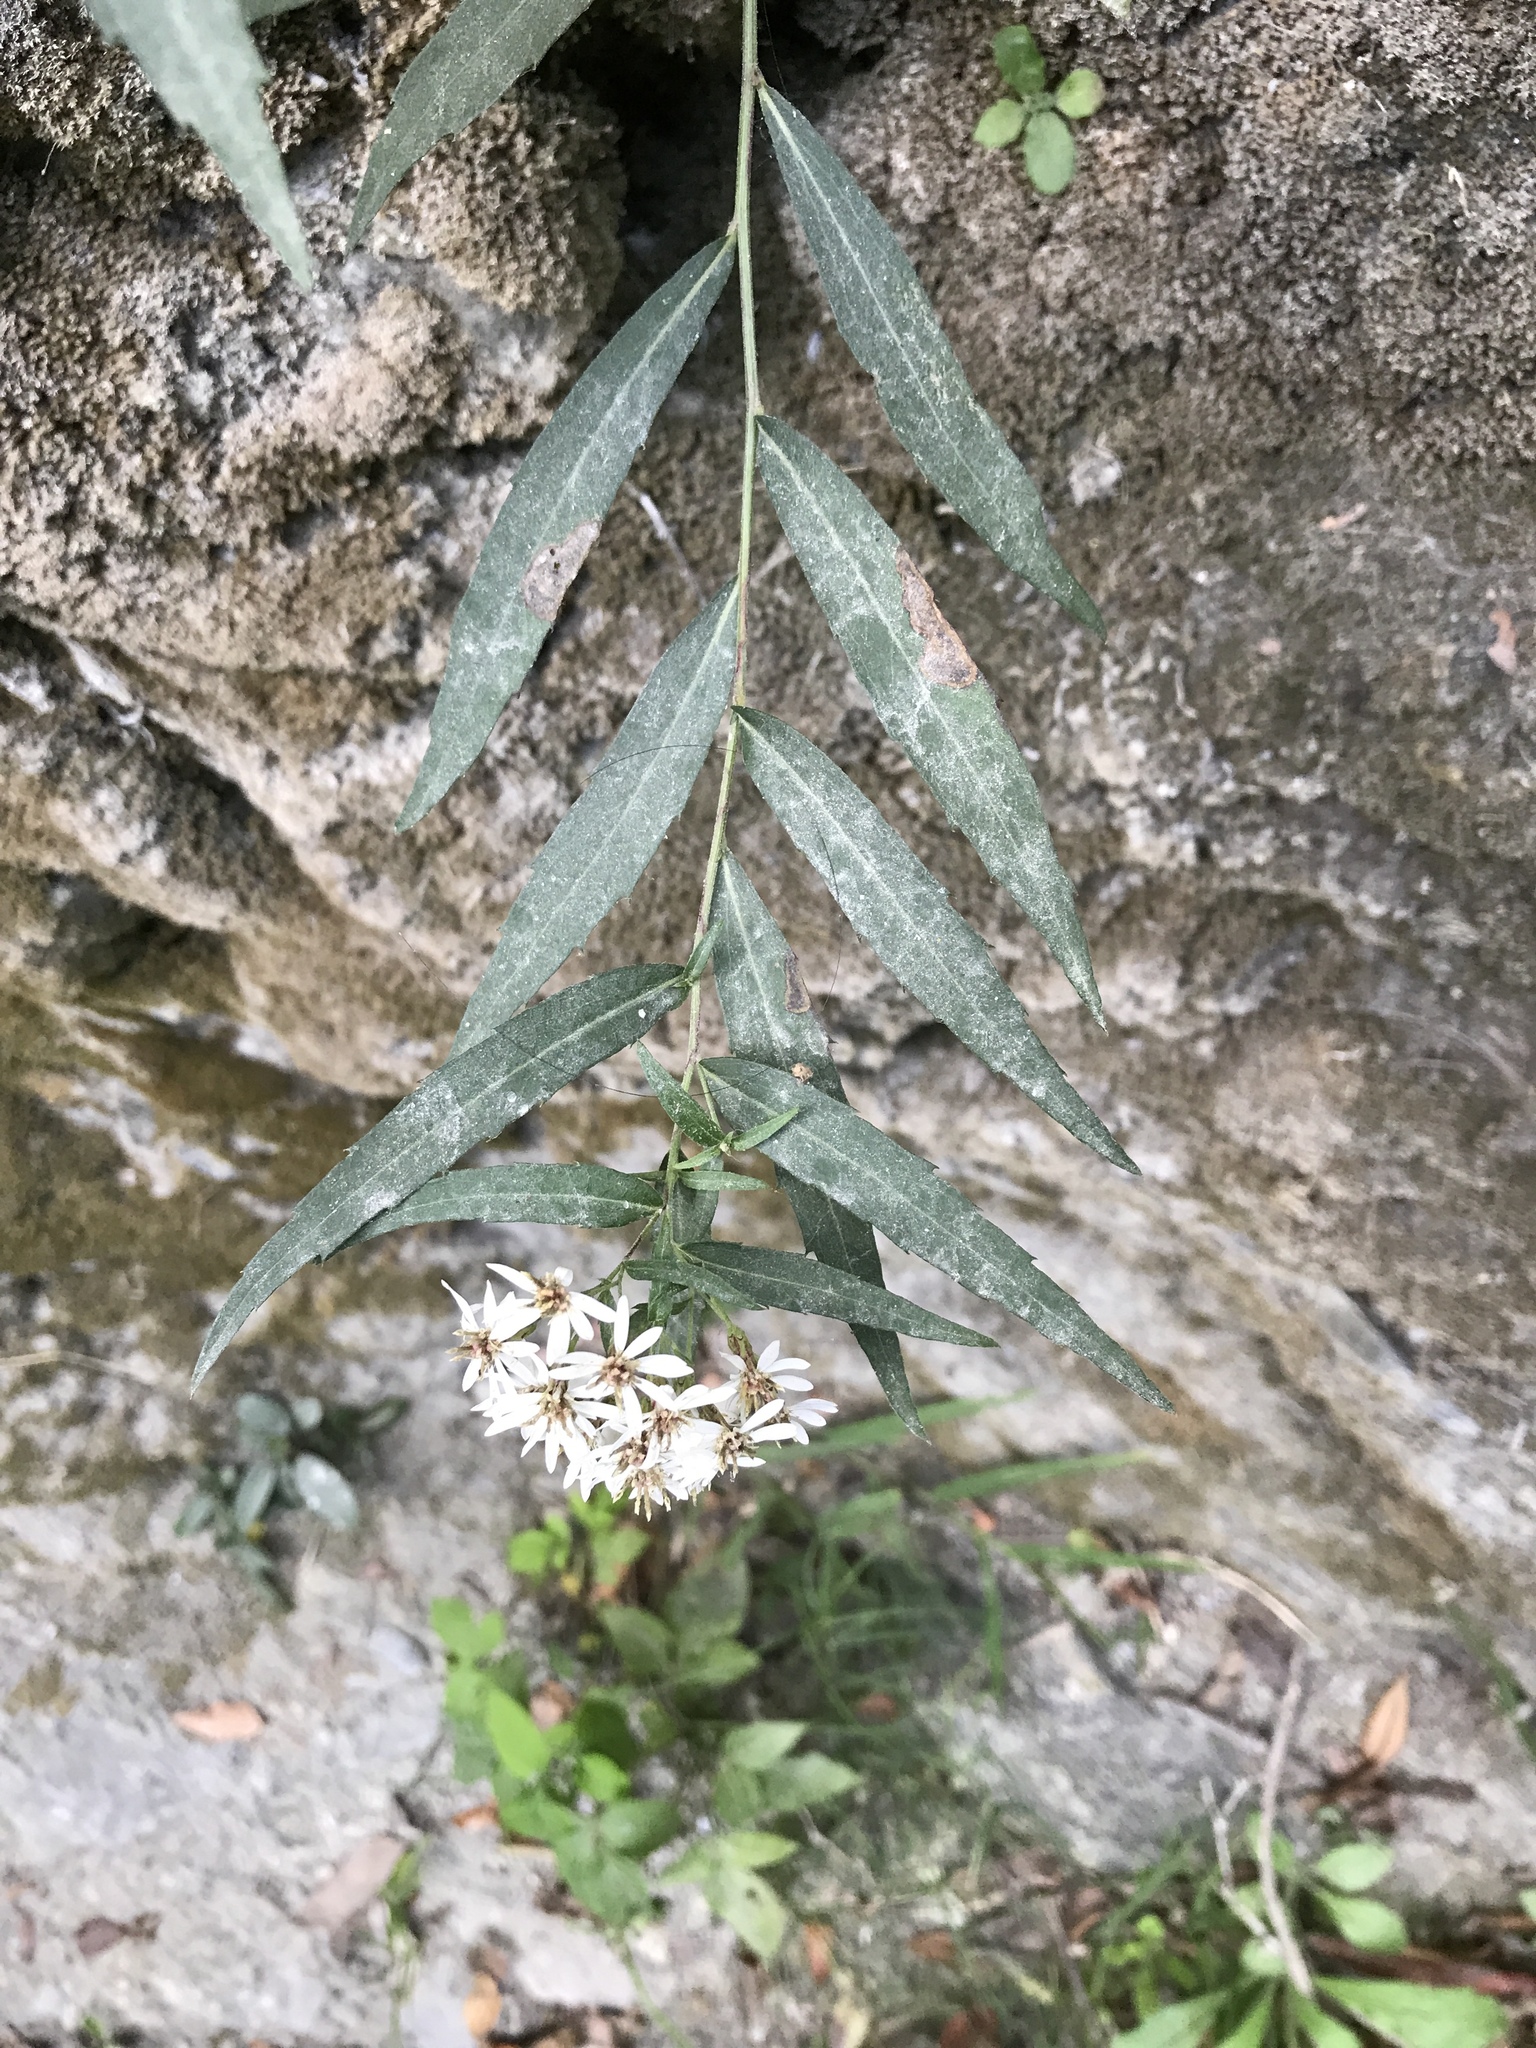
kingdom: Plantae
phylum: Tracheophyta
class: Magnoliopsida
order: Asterales
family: Asteraceae
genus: Aster
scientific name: Aster taiwanensis
